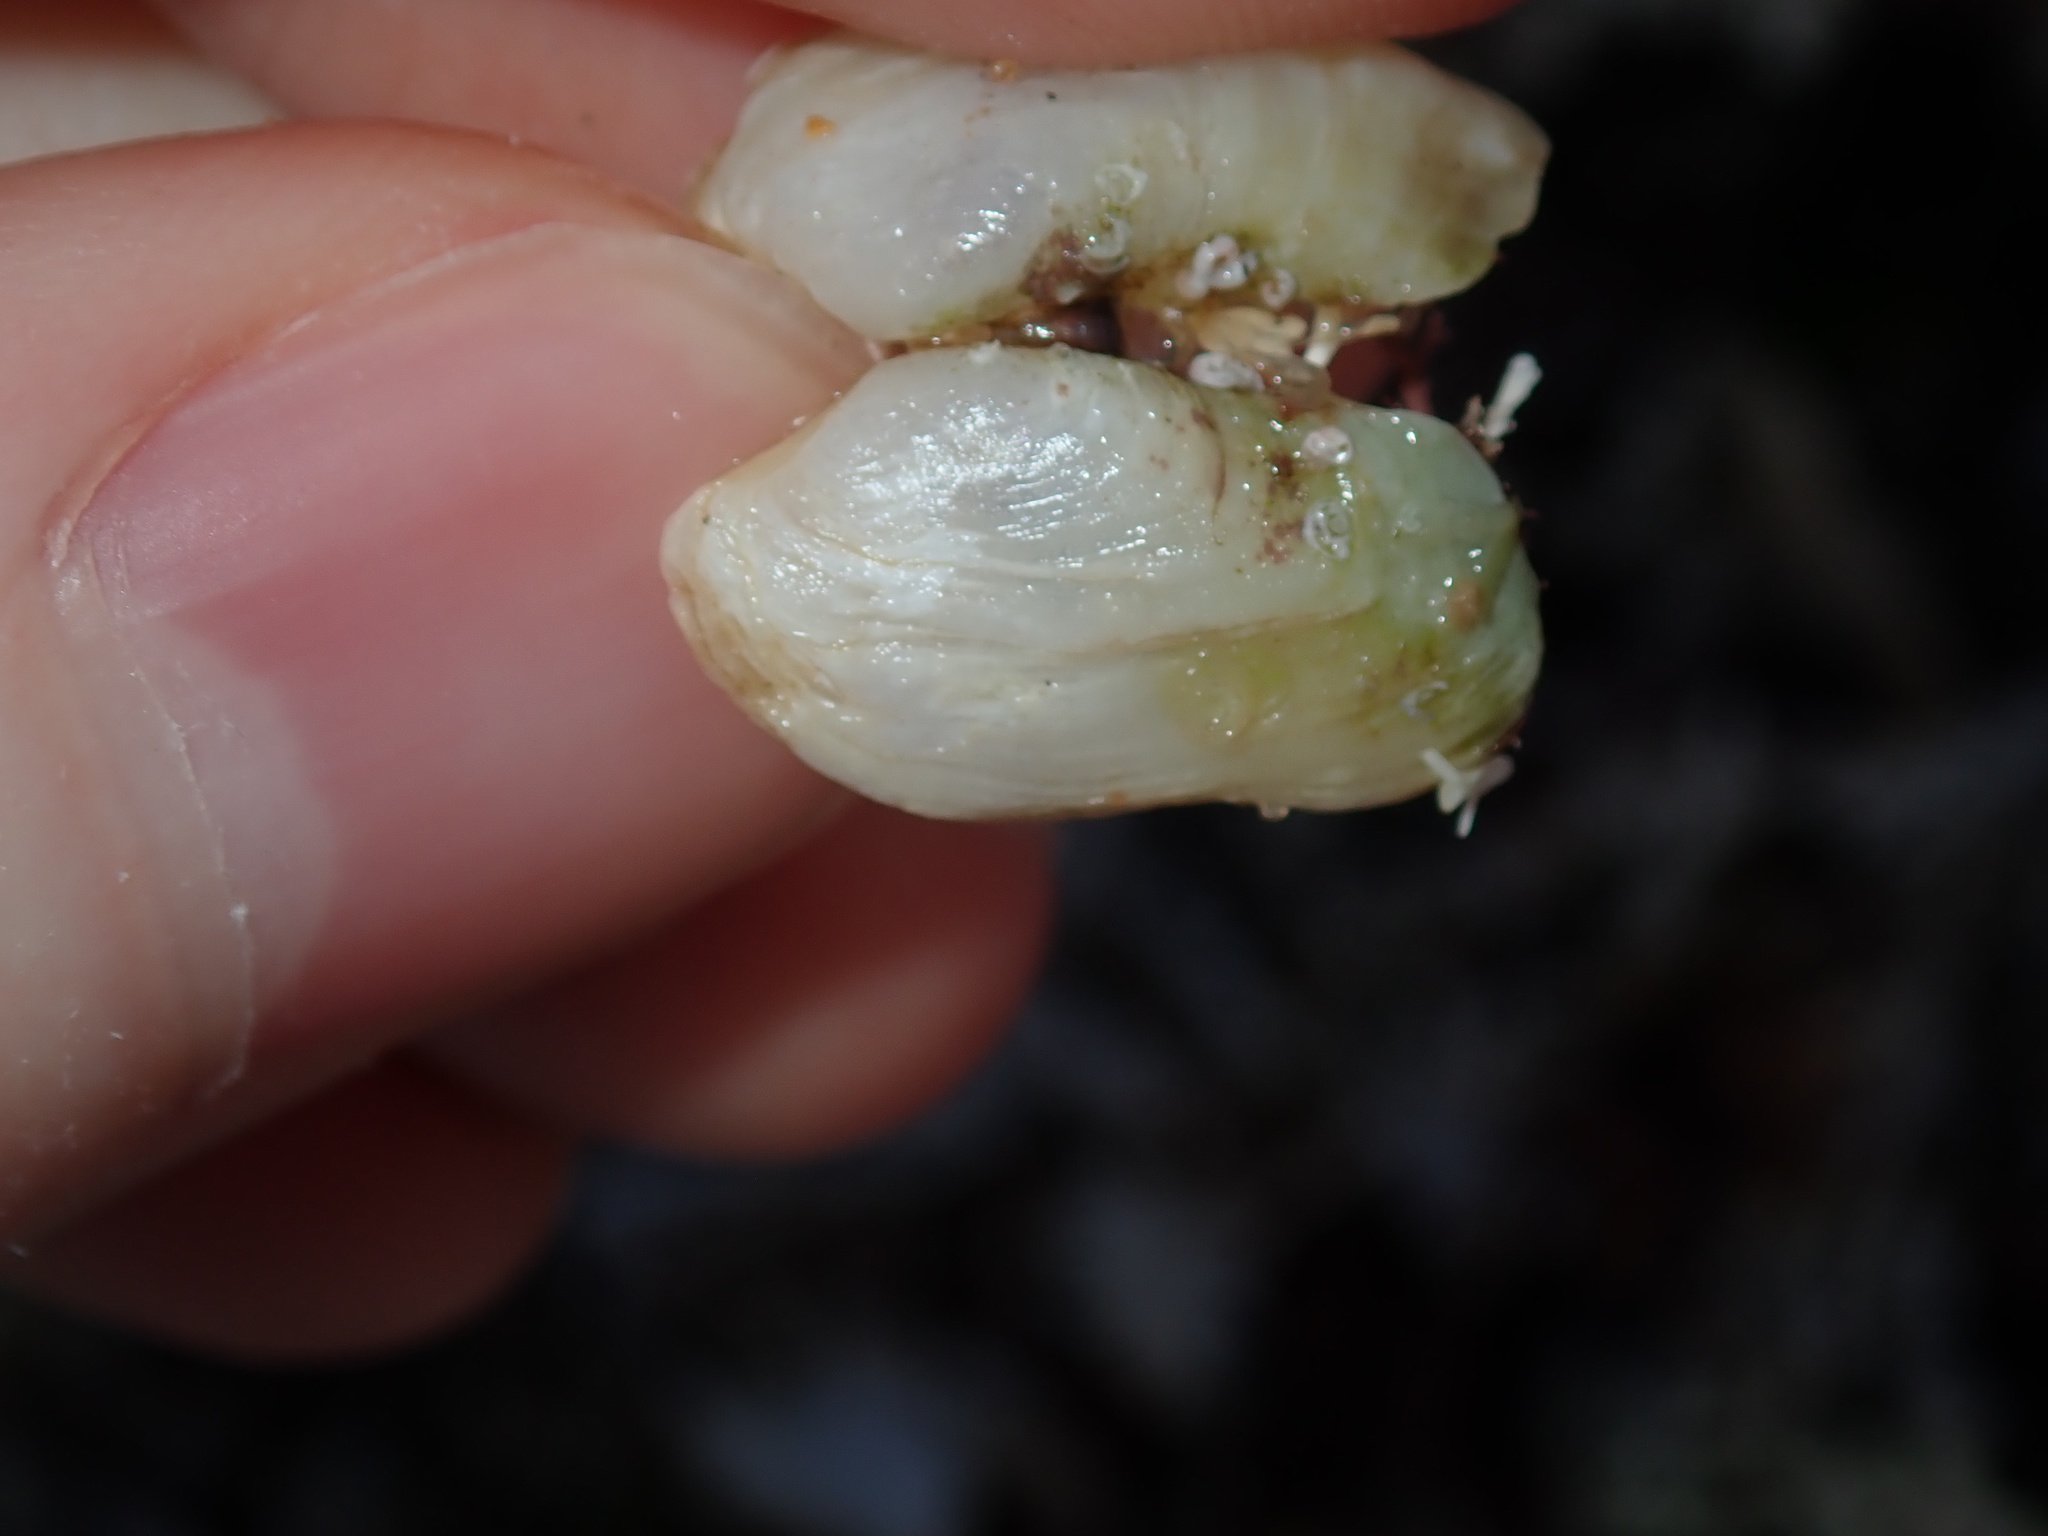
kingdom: Animalia
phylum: Mollusca
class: Bivalvia
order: Adapedonta
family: Hiatellidae
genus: Hiatella
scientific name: Hiatella australis
